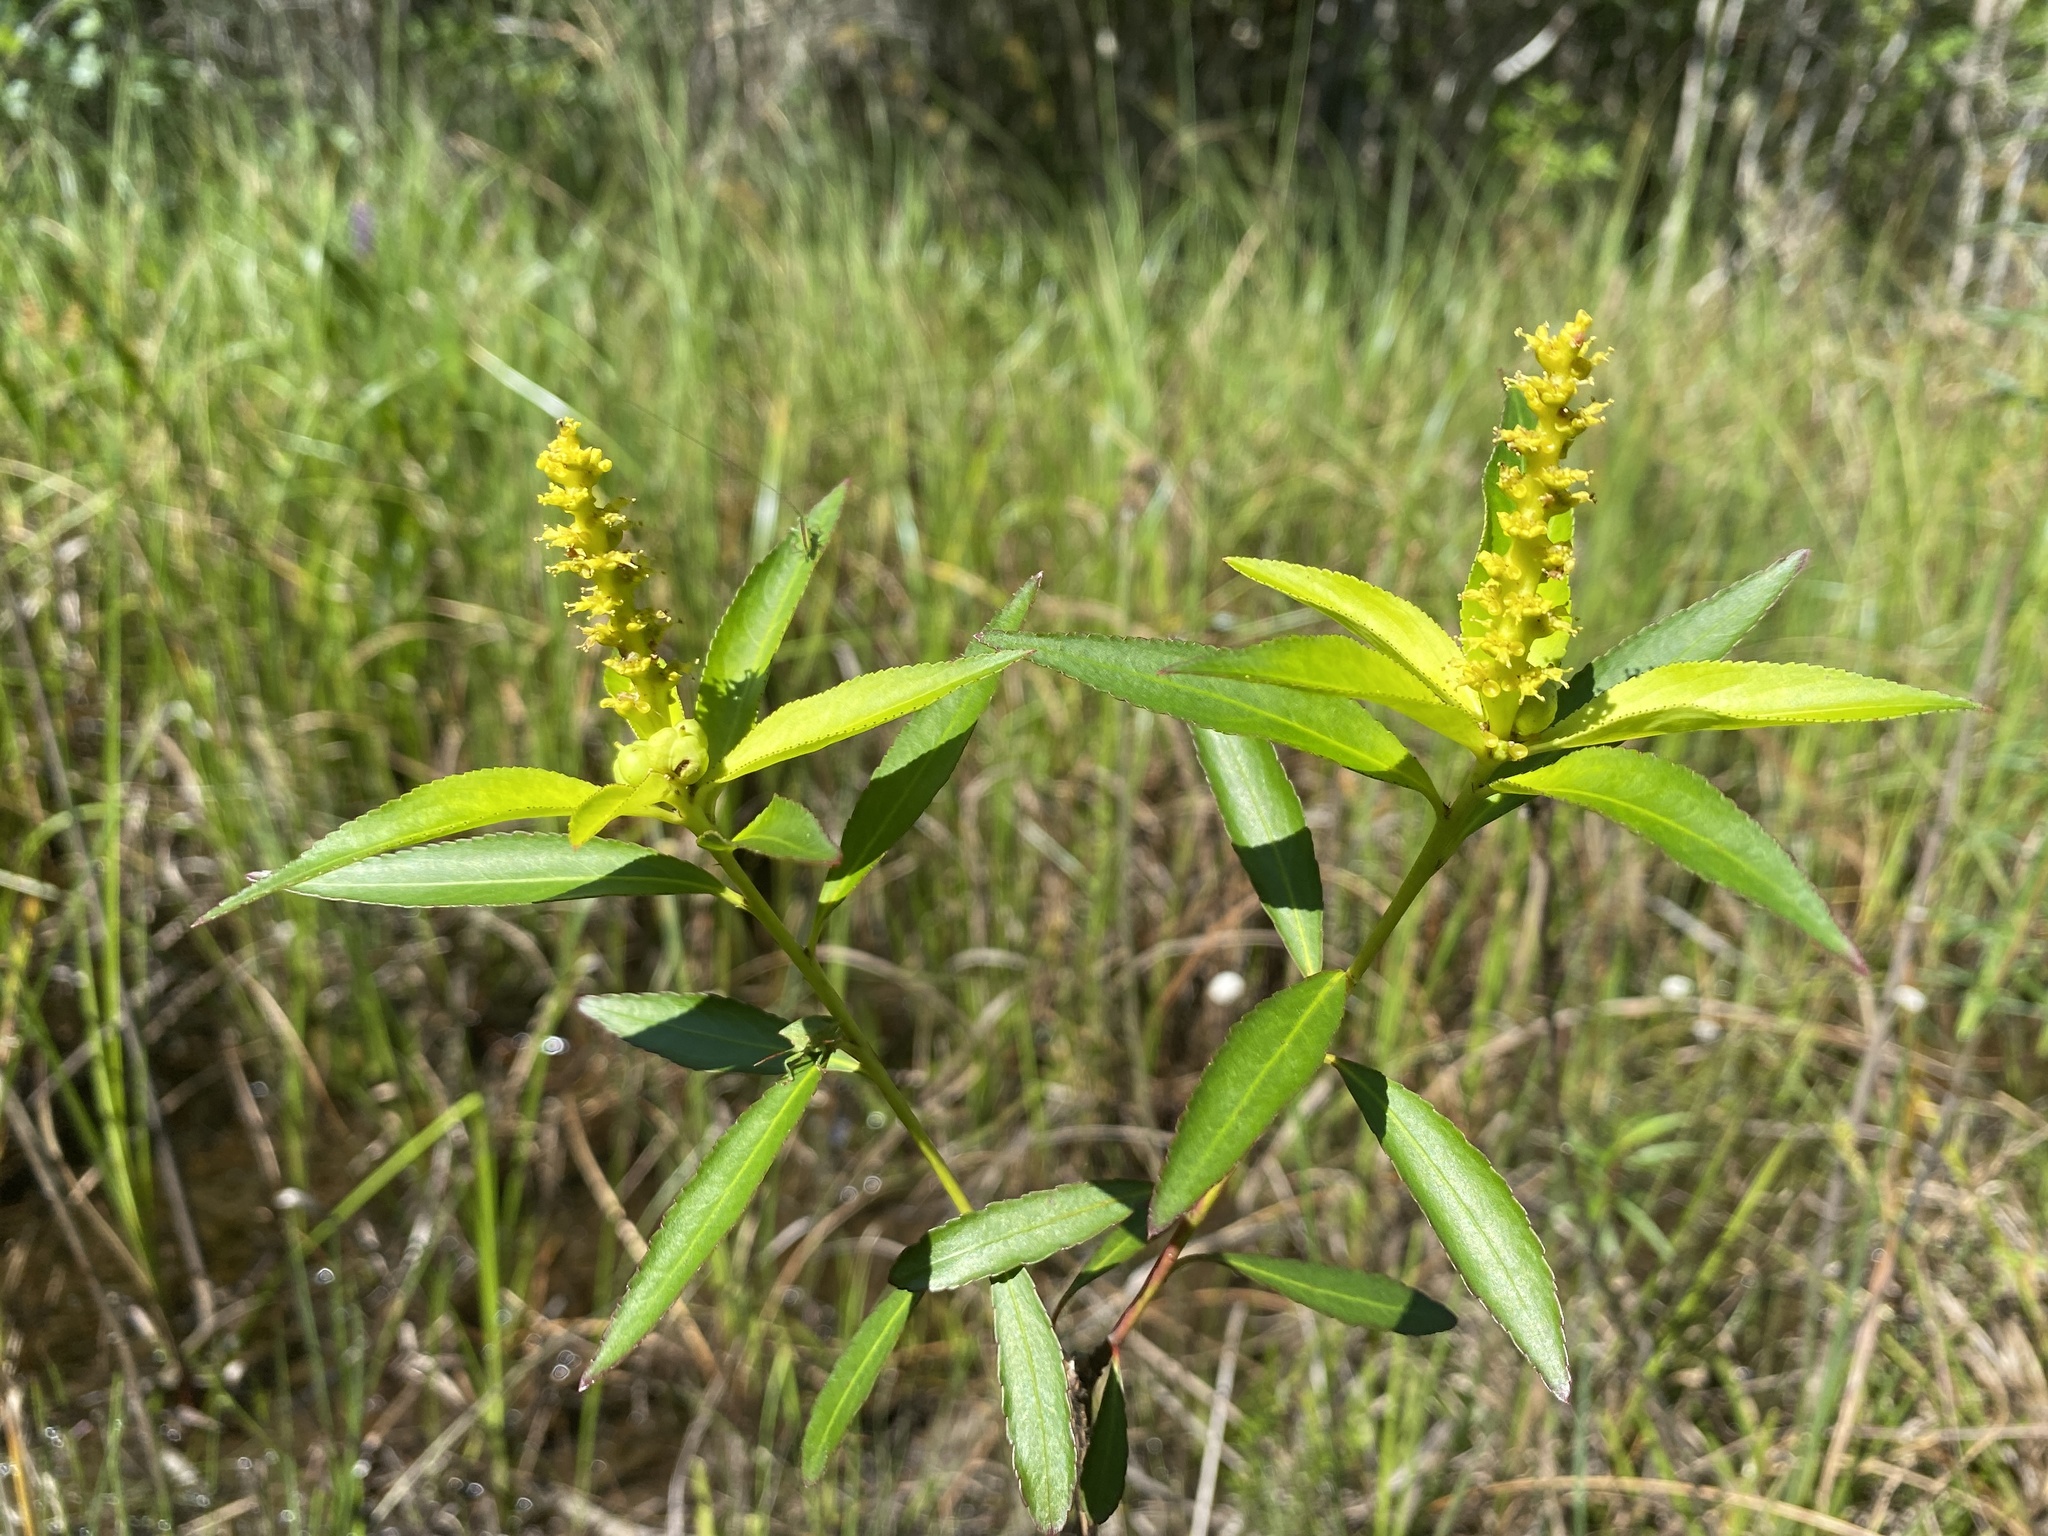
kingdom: Plantae
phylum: Tracheophyta
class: Magnoliopsida
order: Malpighiales
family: Euphorbiaceae
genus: Stillingia
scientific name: Stillingia aquatica
